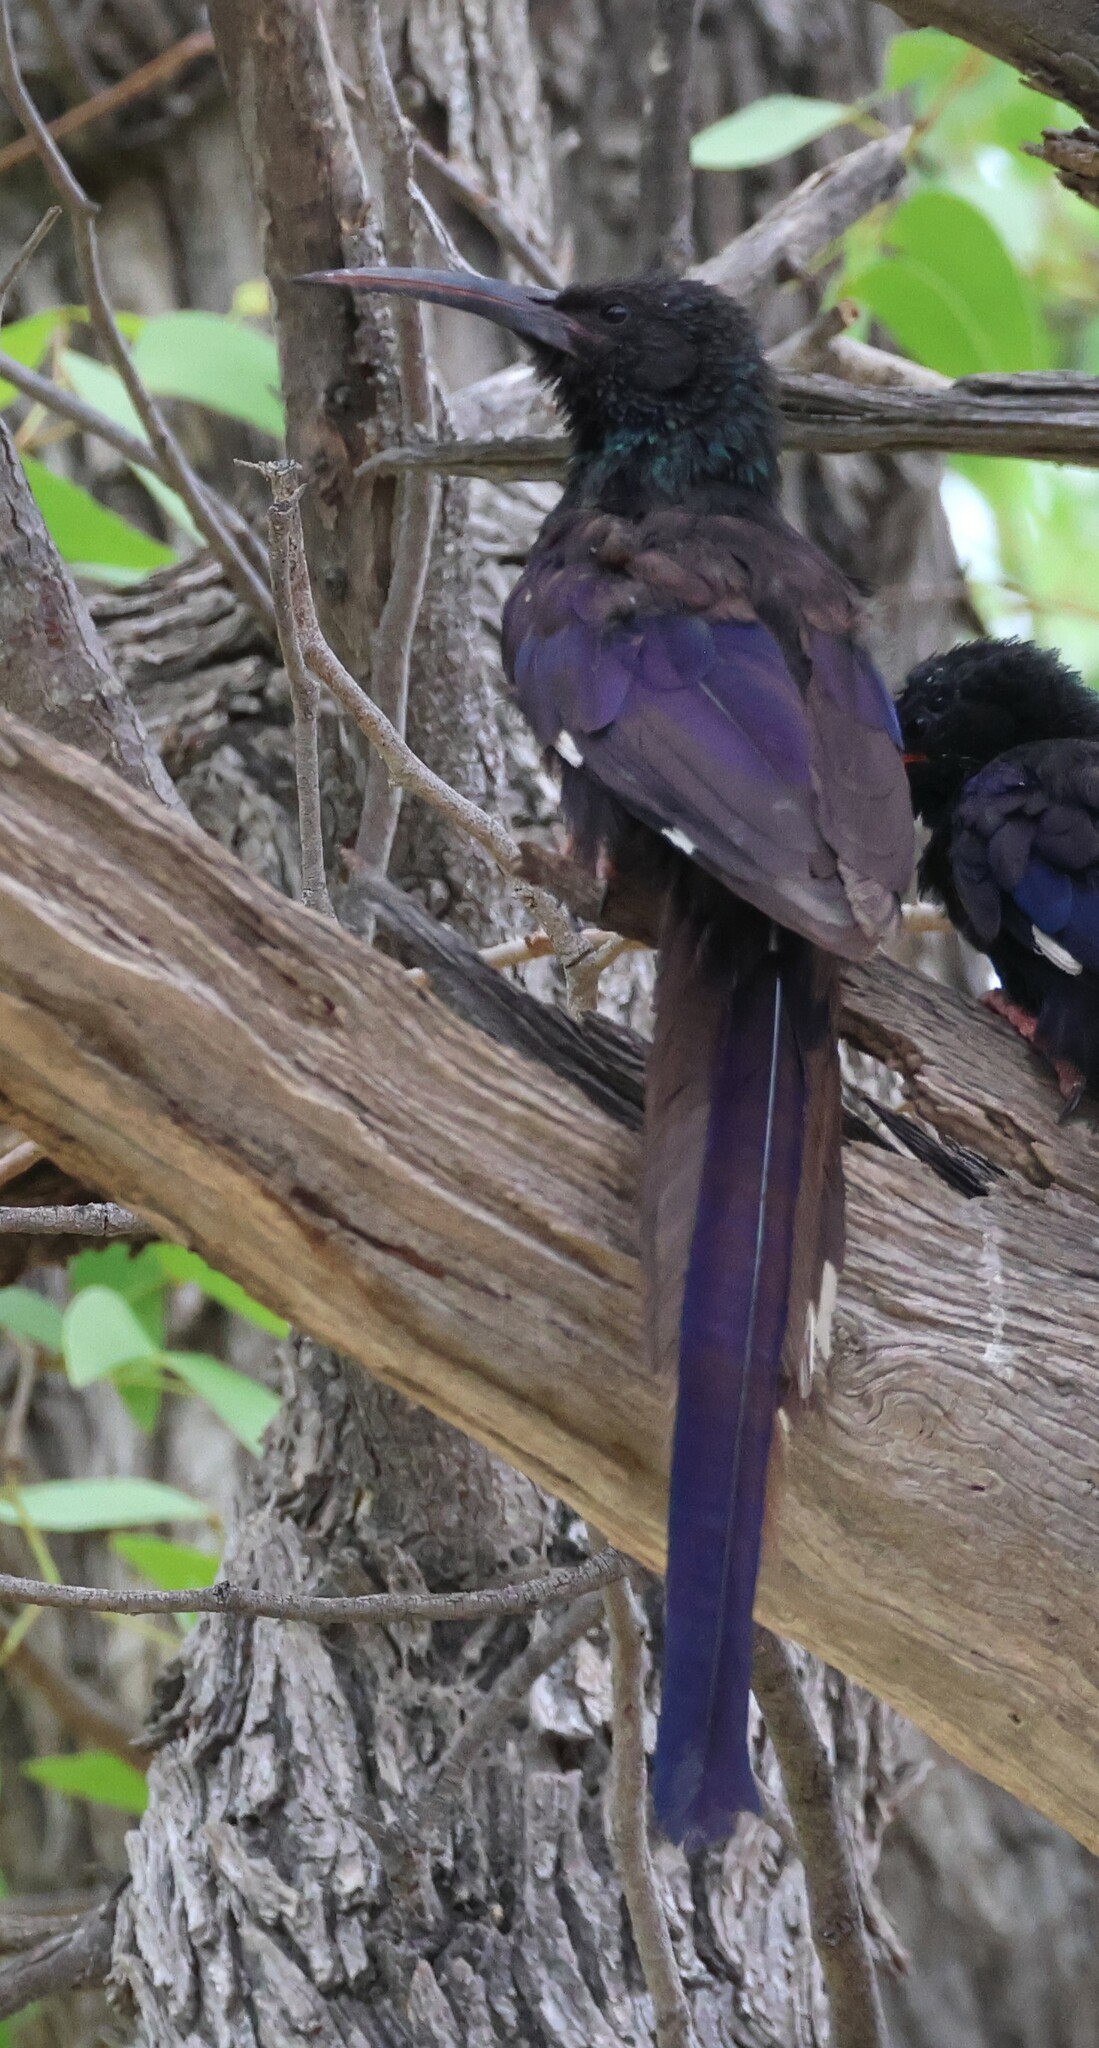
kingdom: Animalia
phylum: Chordata
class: Aves
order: Bucerotiformes
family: Phoeniculidae
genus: Phoeniculus
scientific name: Phoeniculus damarensis
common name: Violet woodhoopoe
